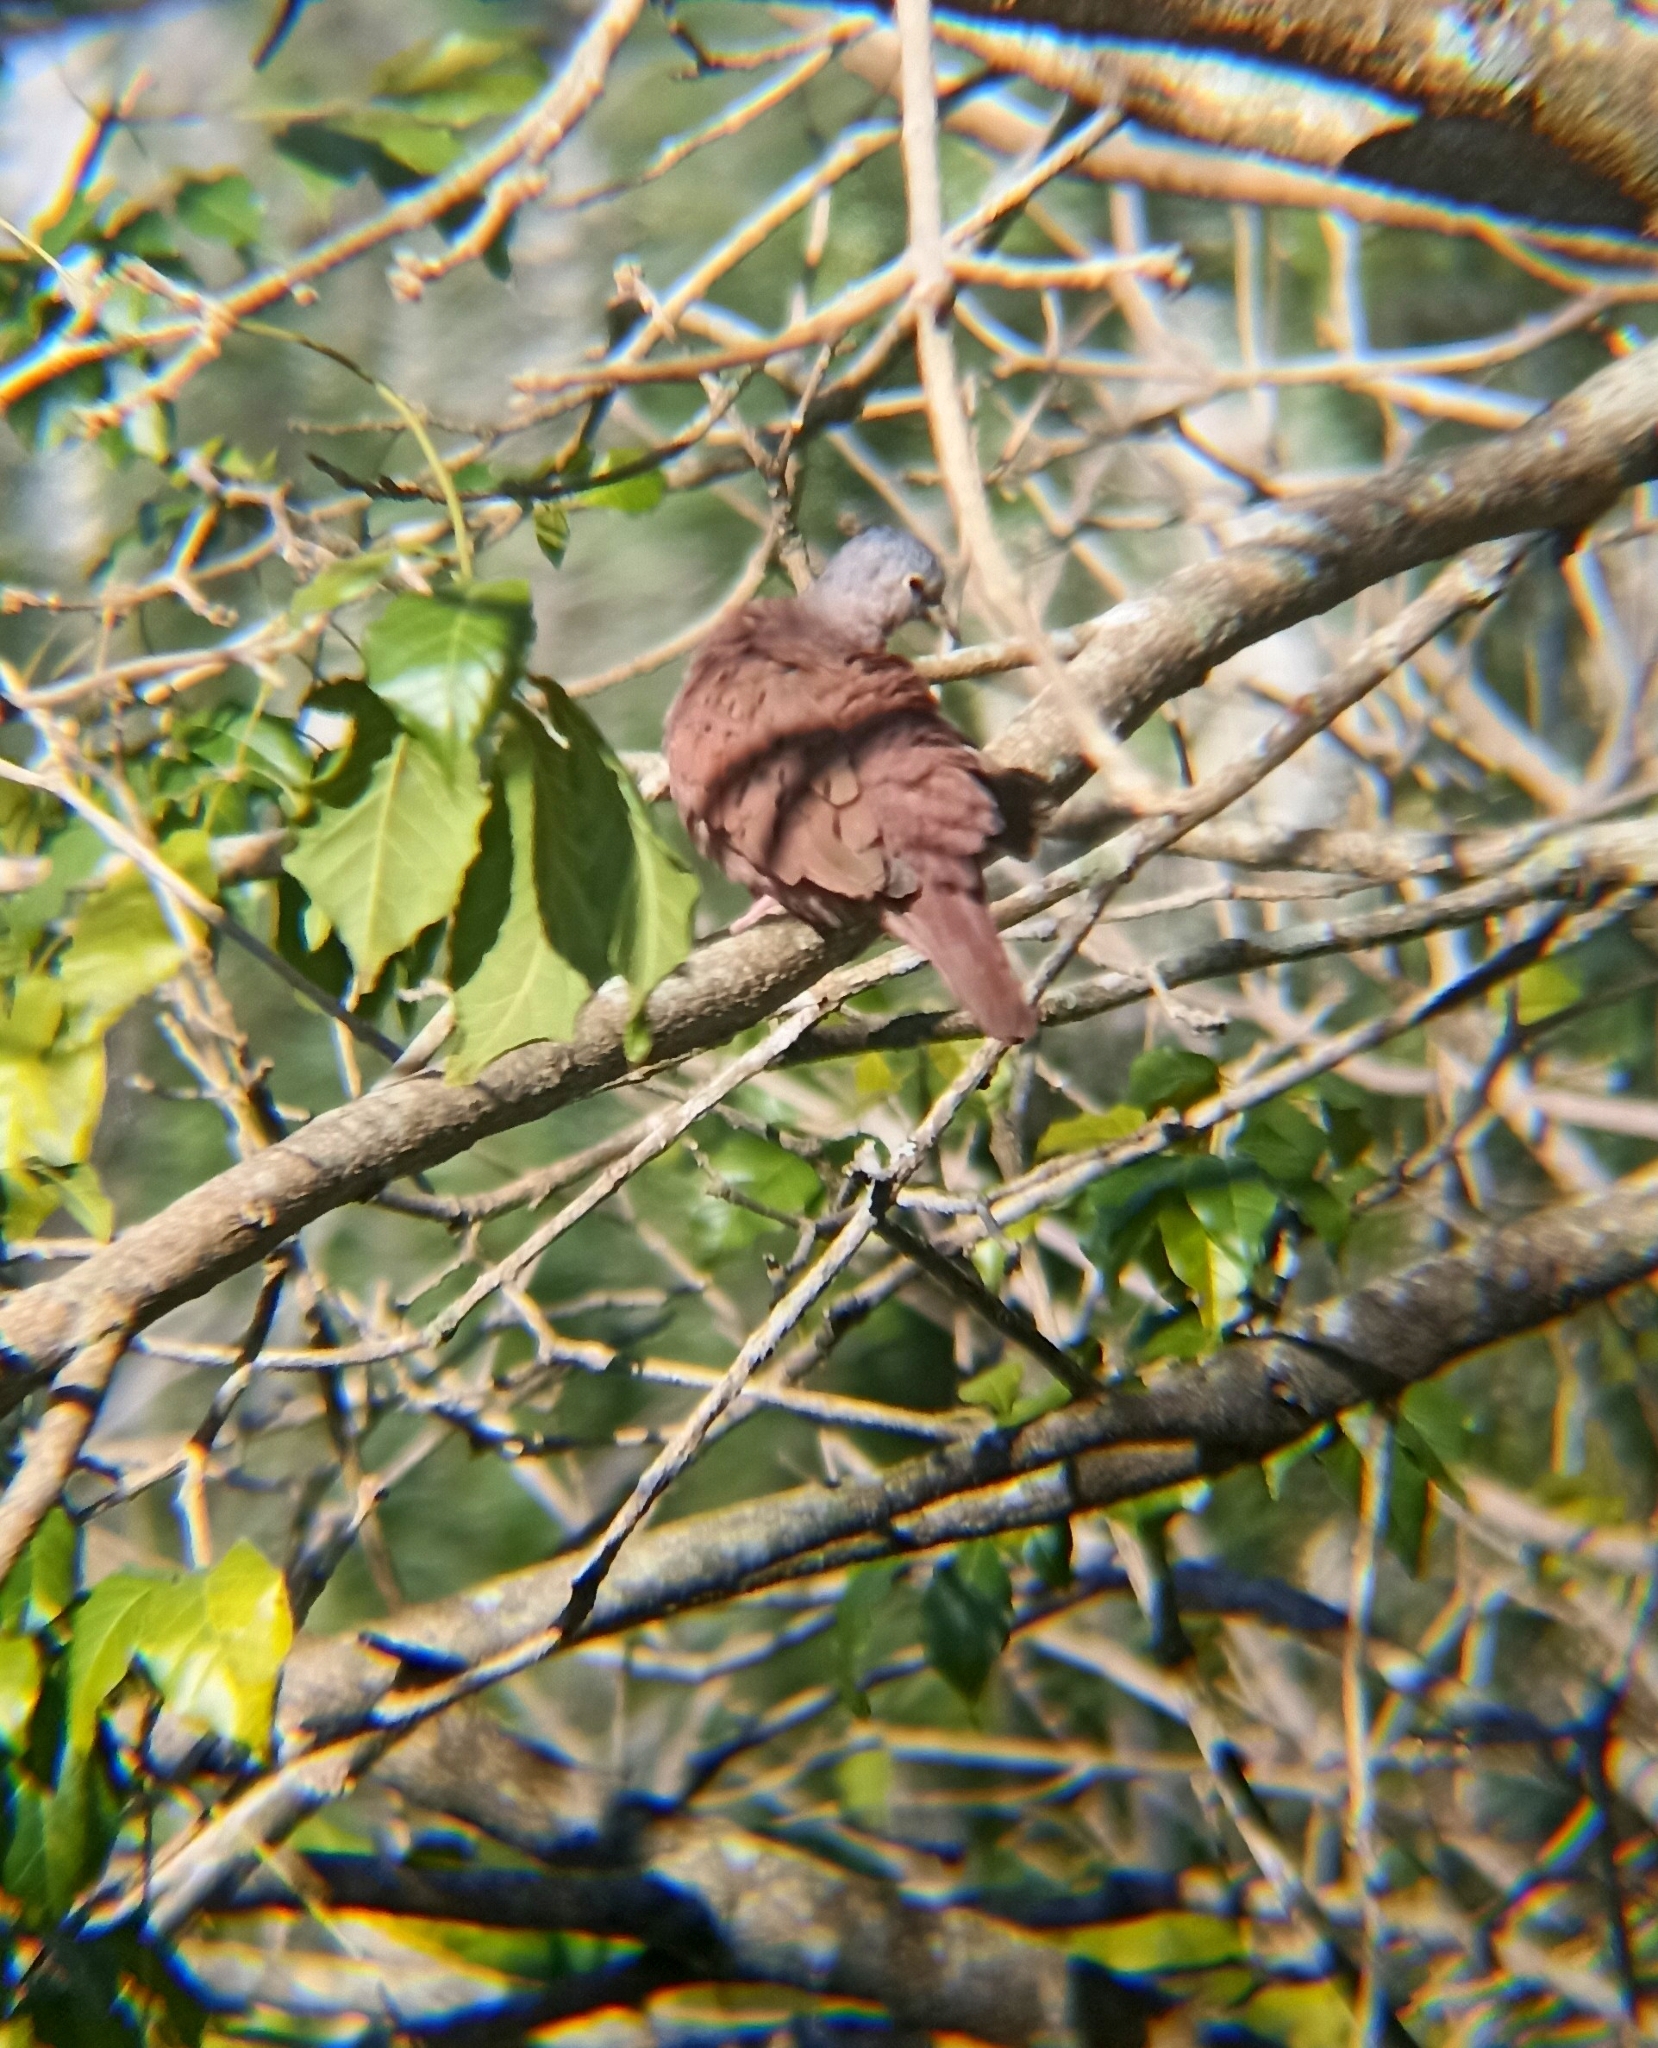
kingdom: Animalia
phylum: Chordata
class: Aves
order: Columbiformes
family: Columbidae
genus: Columbina
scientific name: Columbina talpacoti
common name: Ruddy ground dove
